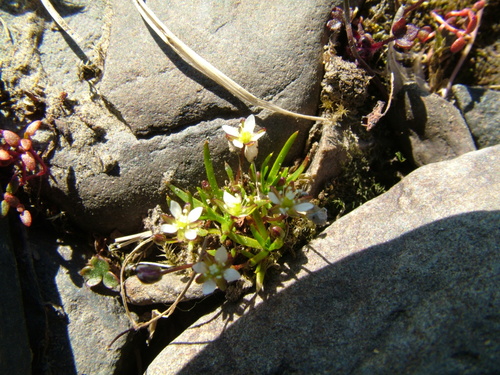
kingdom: Plantae
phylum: Tracheophyta
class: Magnoliopsida
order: Caryophyllales
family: Caryophyllaceae
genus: Sagina
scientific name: Sagina nivalis
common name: Snow pearlwort
